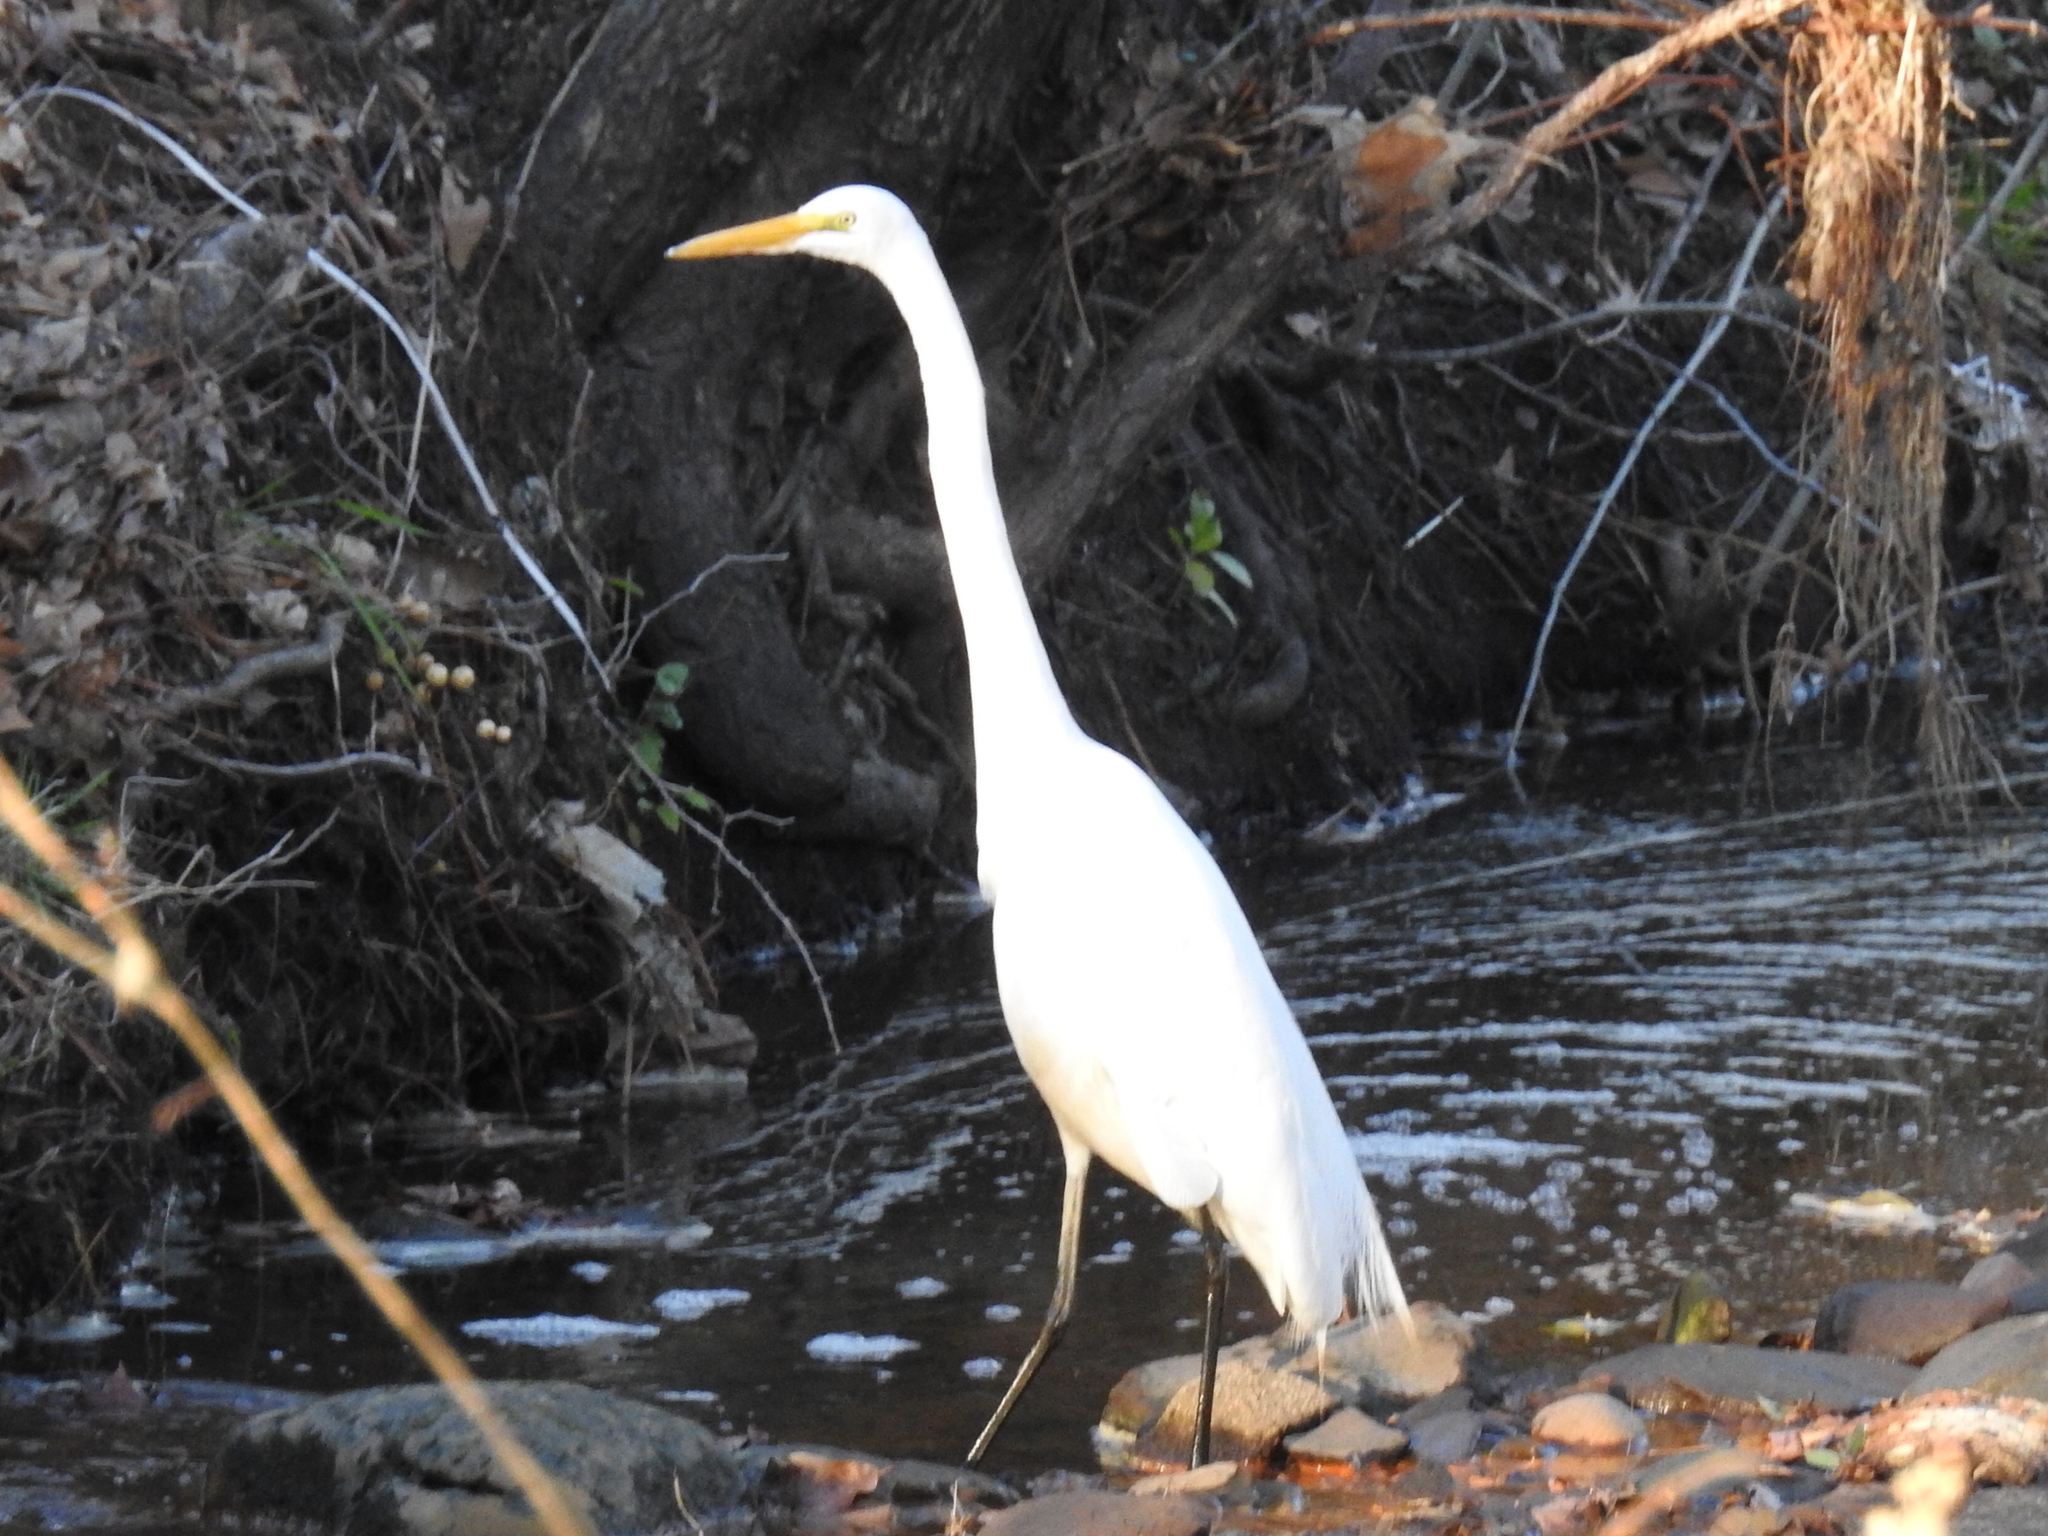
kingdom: Animalia
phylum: Chordata
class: Aves
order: Pelecaniformes
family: Ardeidae
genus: Ardea
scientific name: Ardea alba
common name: Great egret
